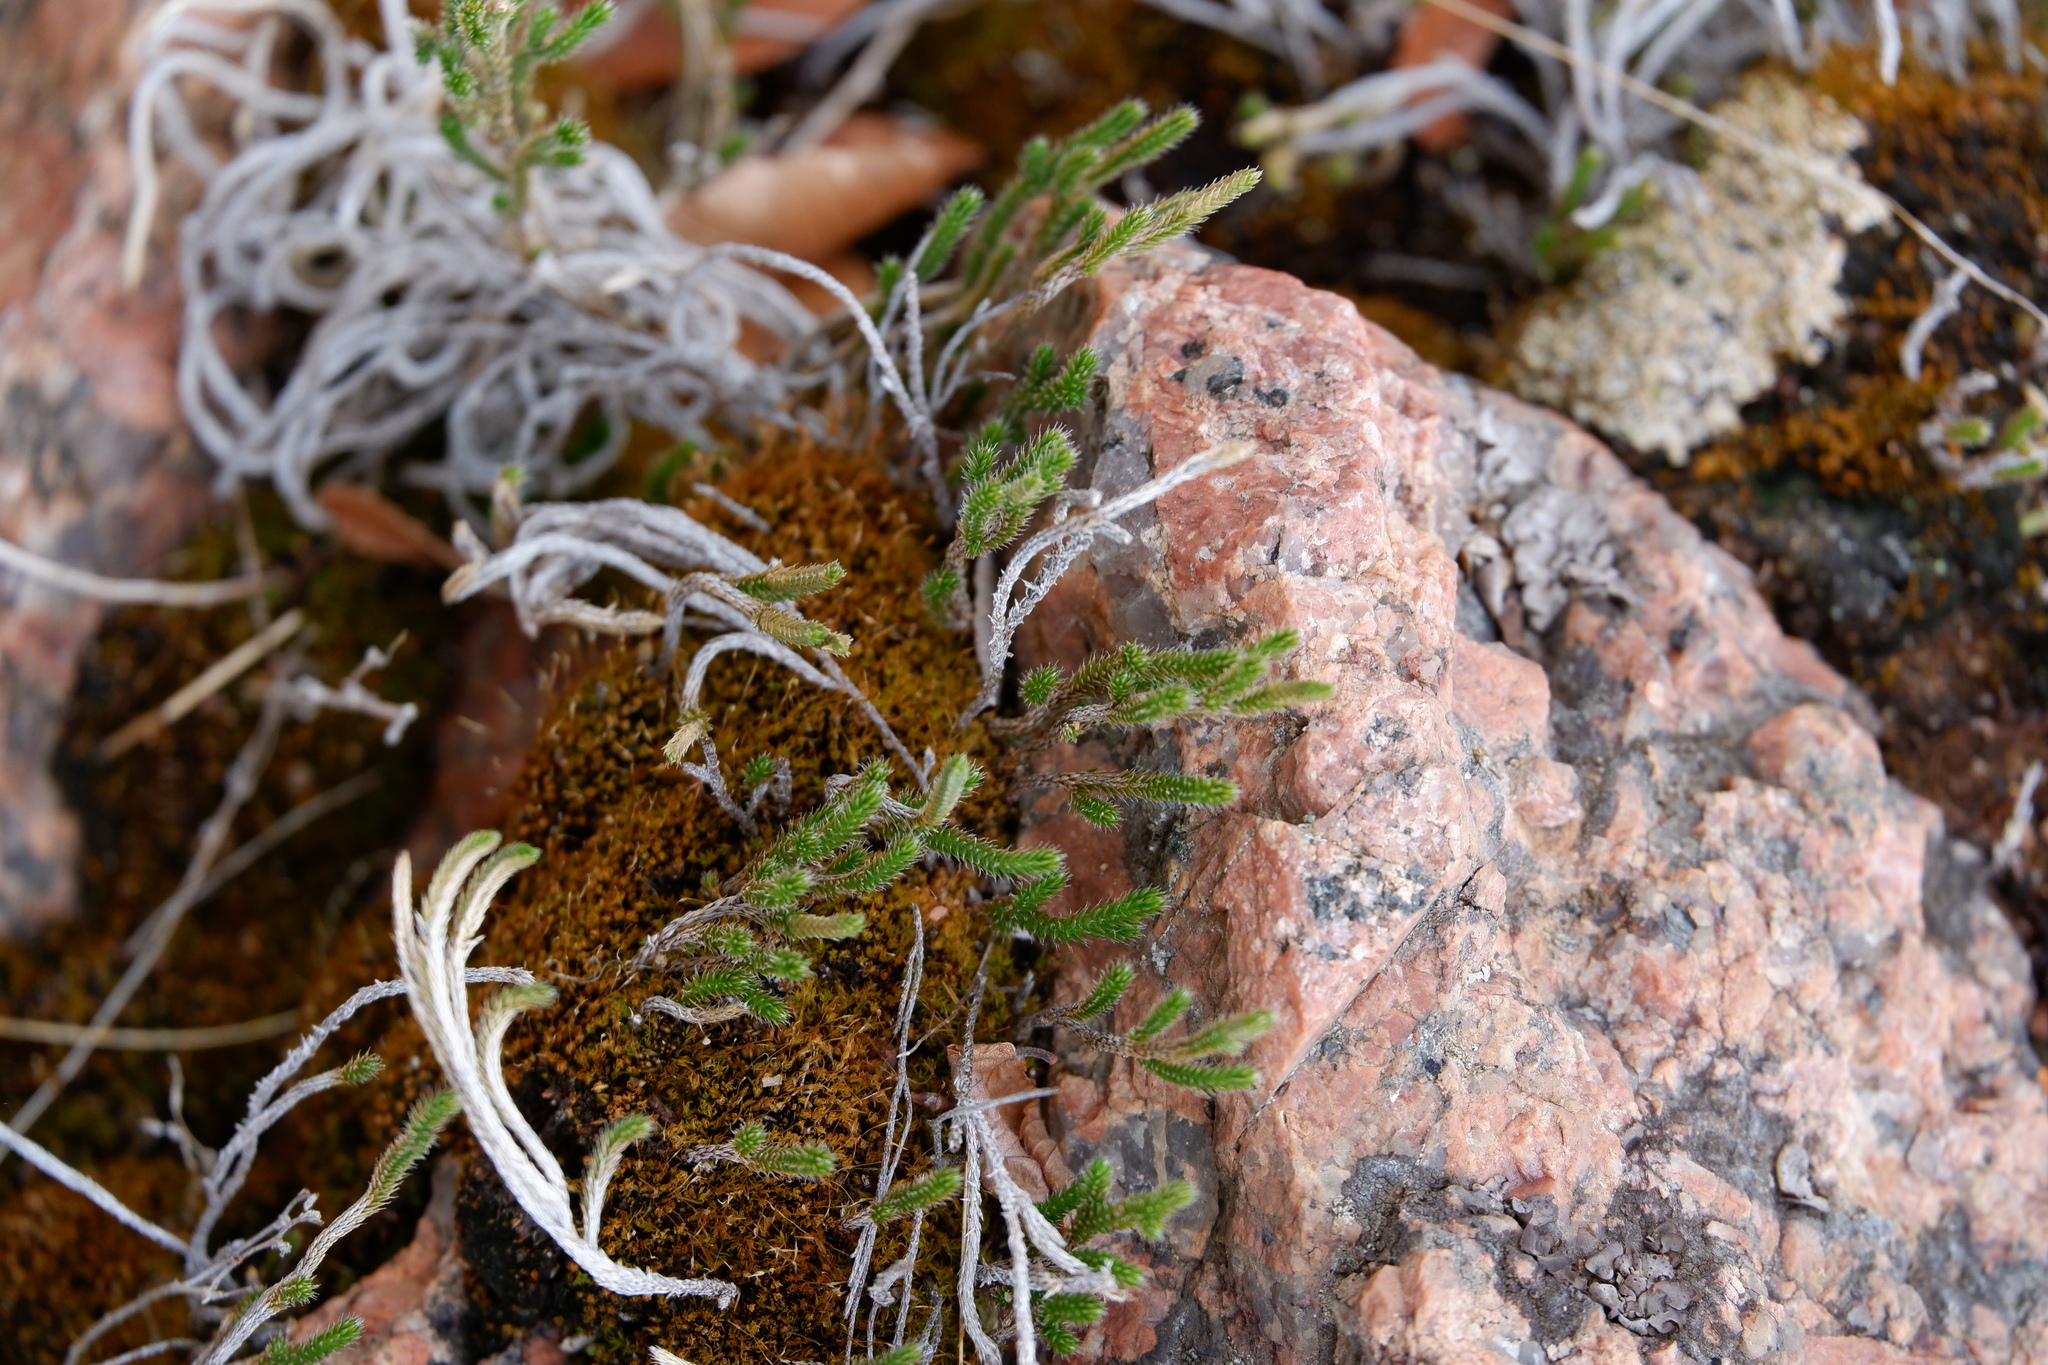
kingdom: Plantae
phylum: Tracheophyta
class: Lycopodiopsida
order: Selaginellales
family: Selaginellaceae
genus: Selaginella
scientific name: Selaginella corallina
